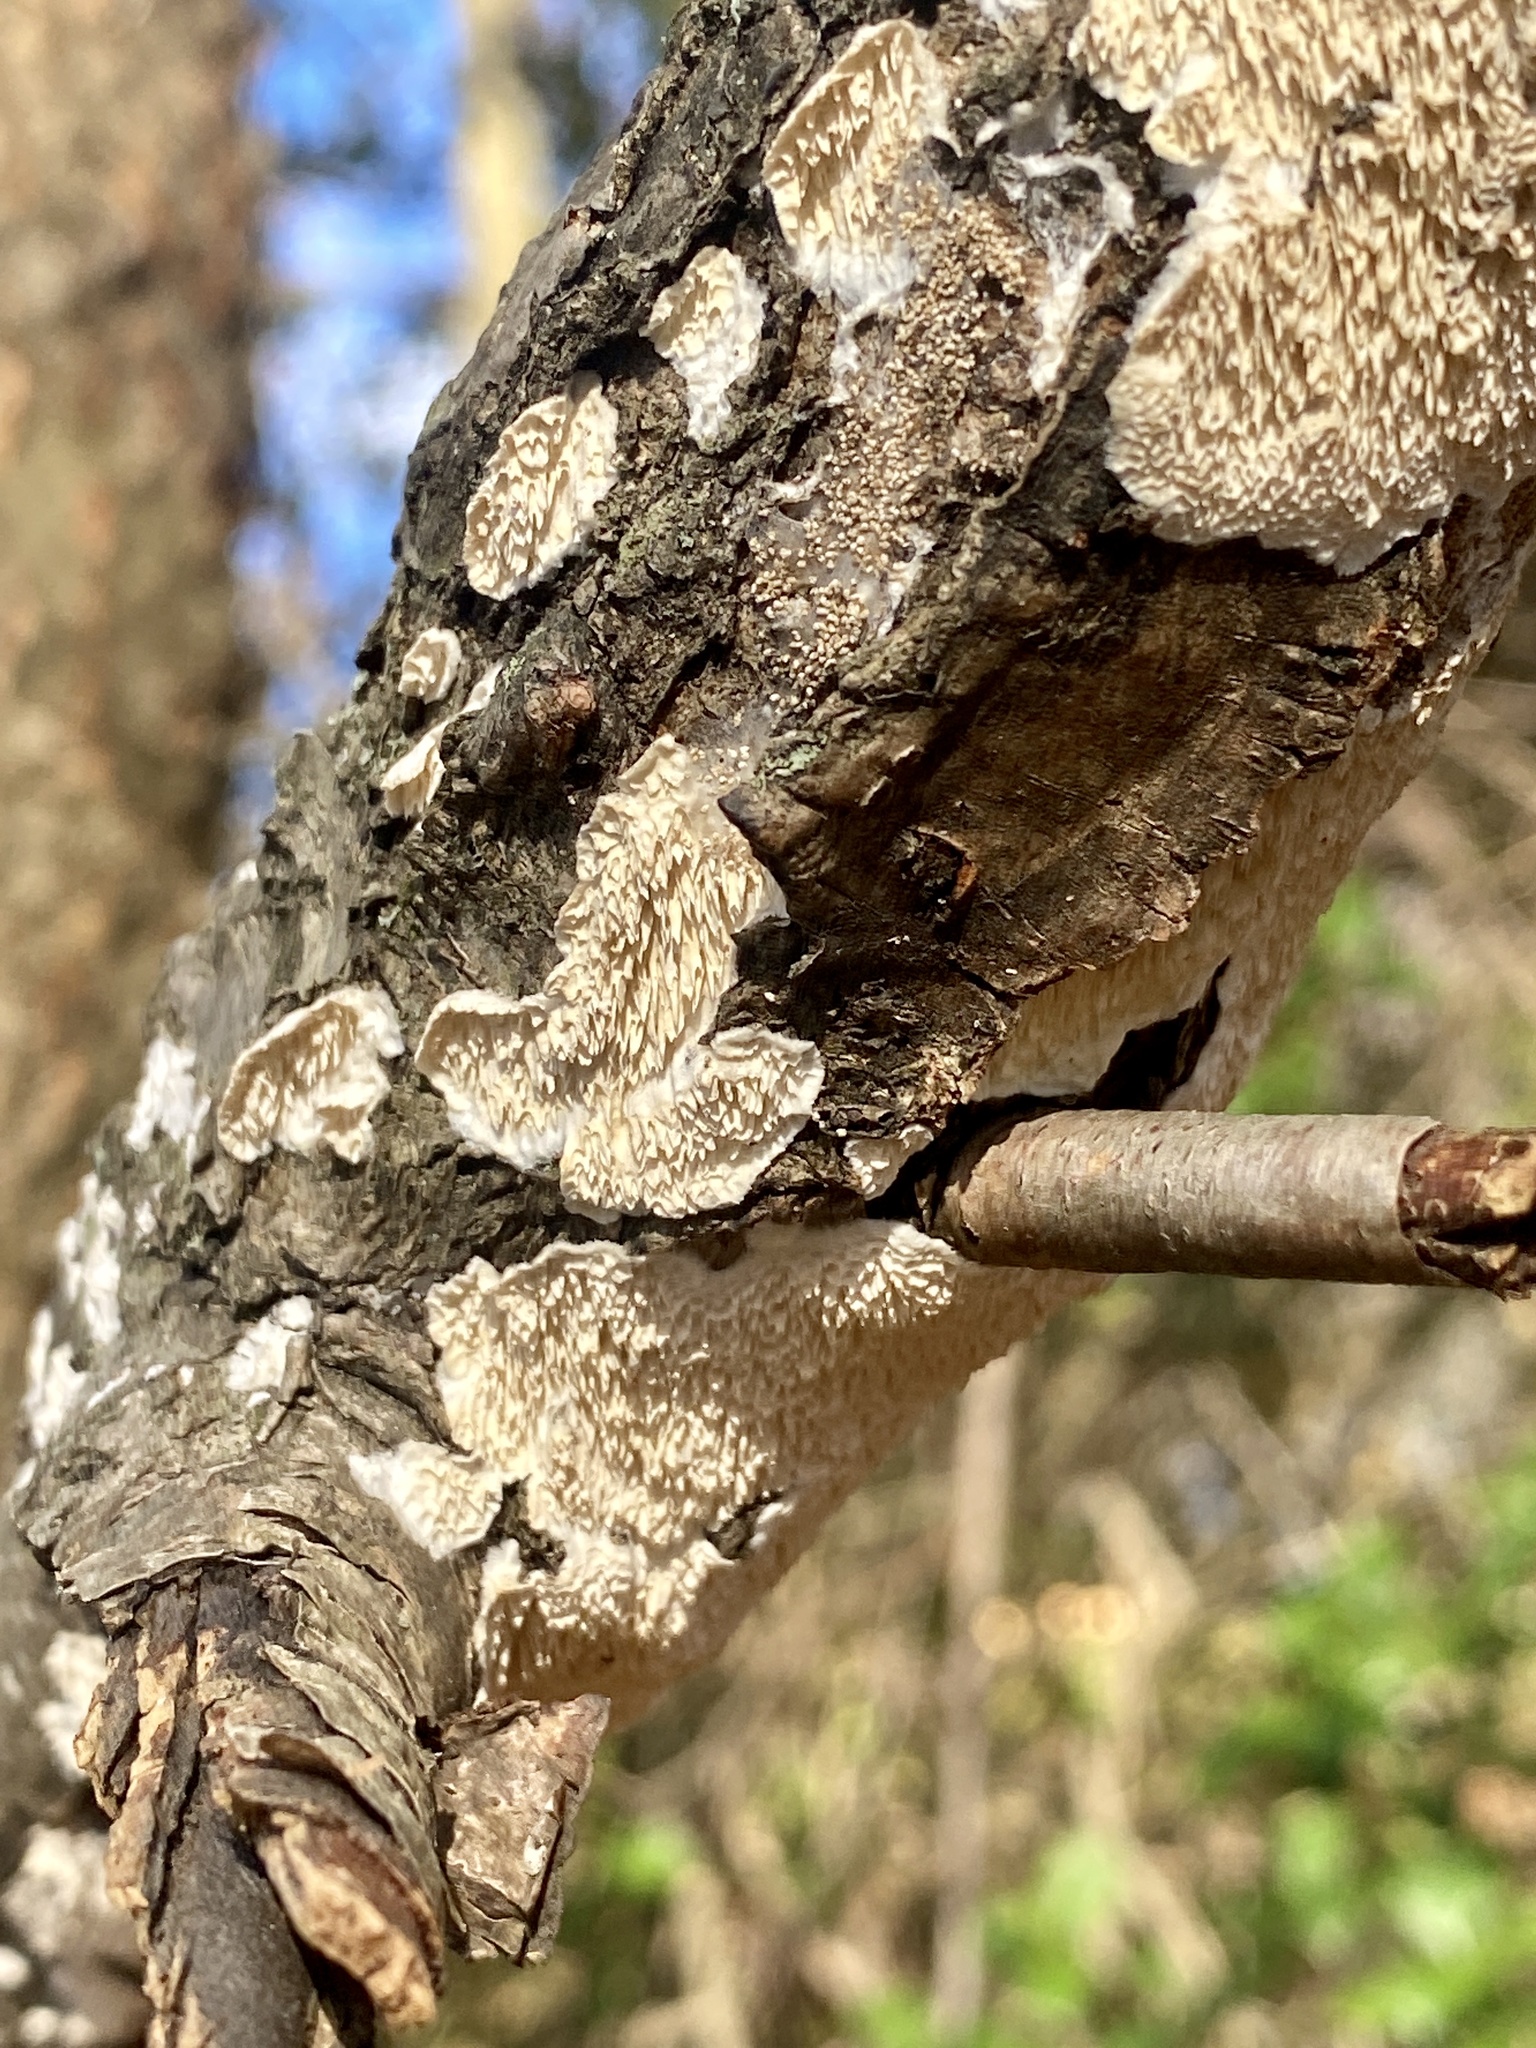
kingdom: Fungi
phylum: Basidiomycota
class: Agaricomycetes
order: Polyporales
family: Irpicaceae
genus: Irpex
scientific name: Irpex lacteus
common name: Milk-white toothed polypore
